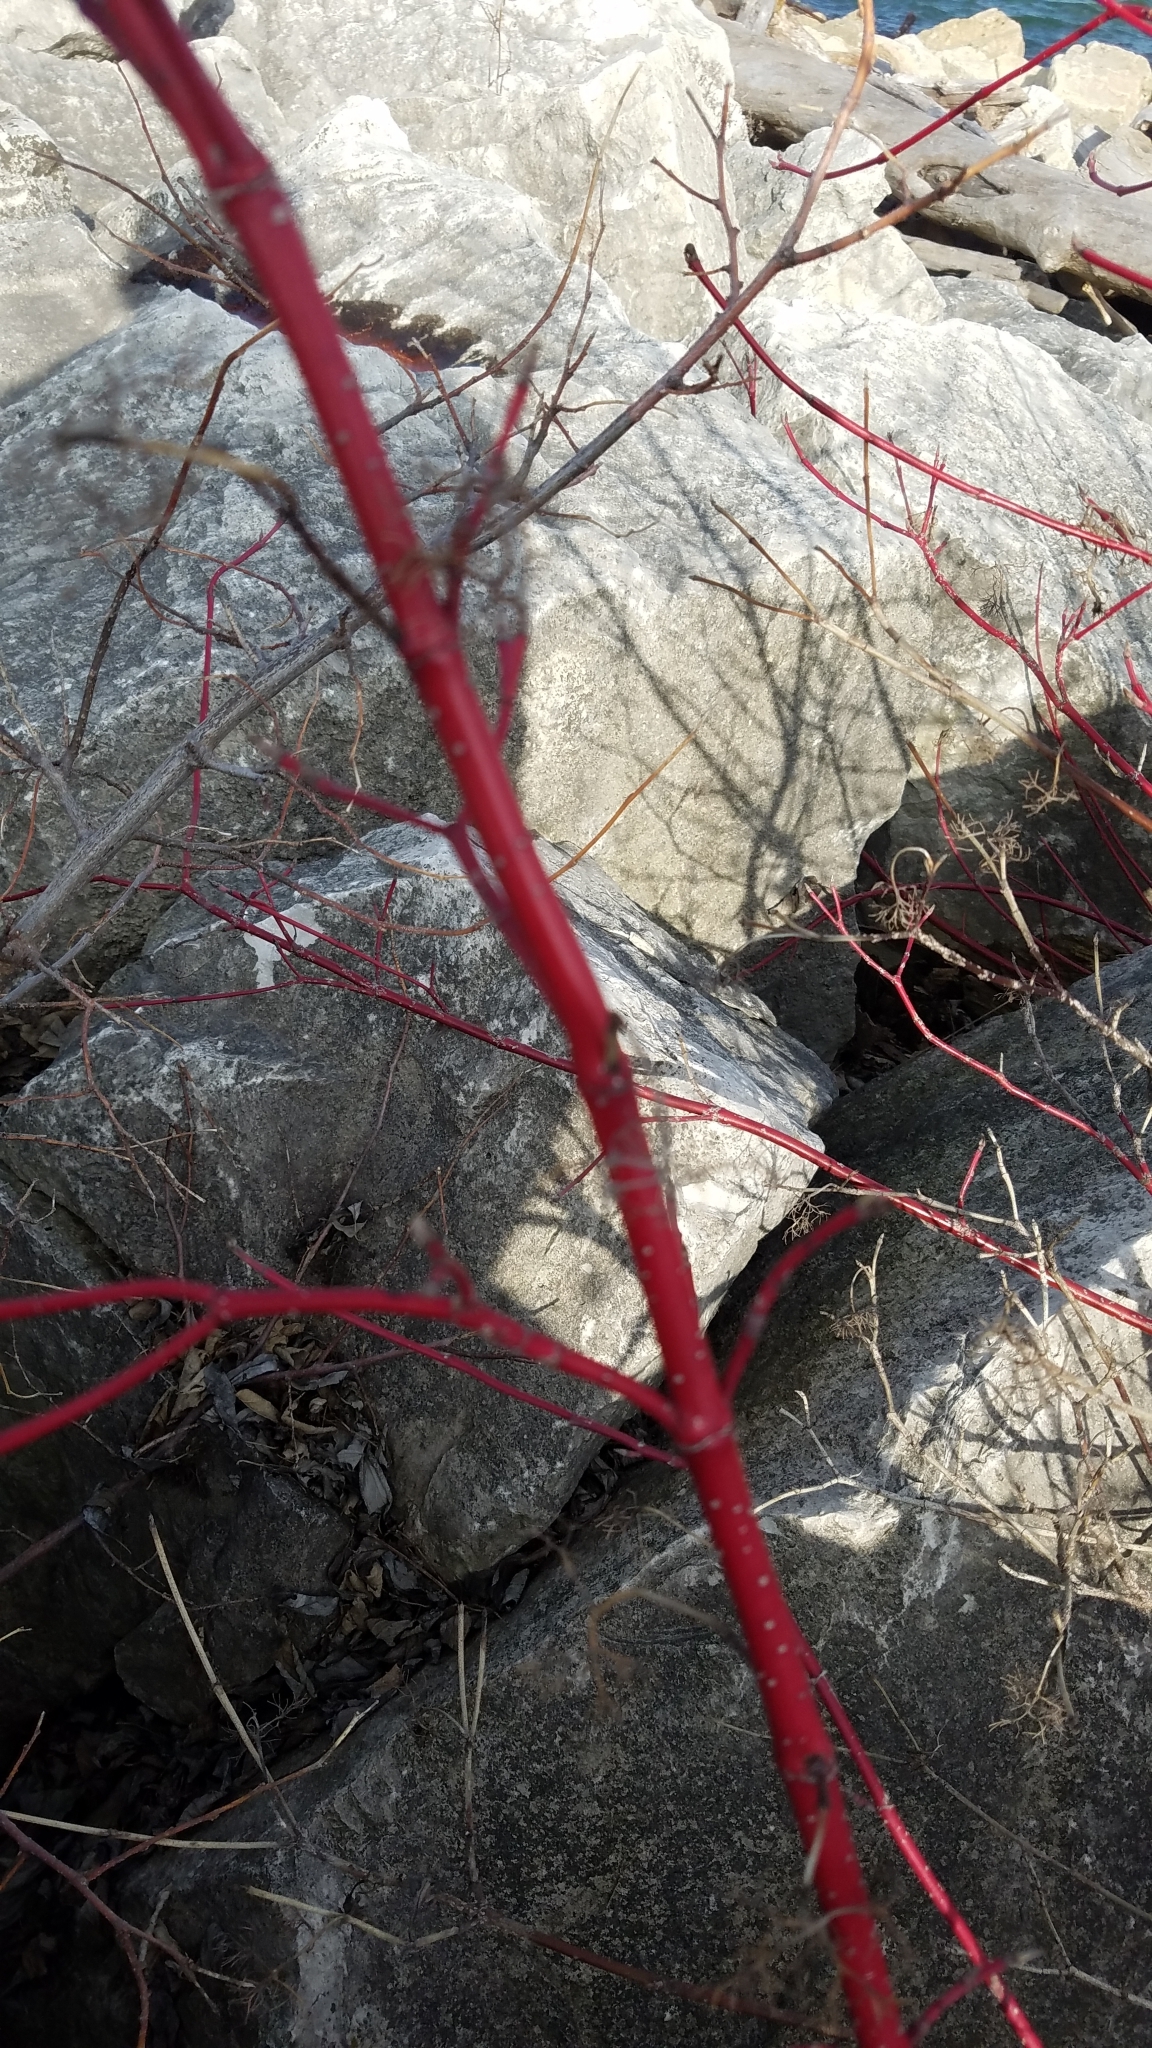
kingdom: Plantae
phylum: Tracheophyta
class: Magnoliopsida
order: Cornales
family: Cornaceae
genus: Cornus
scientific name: Cornus sericea
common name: Red-osier dogwood
